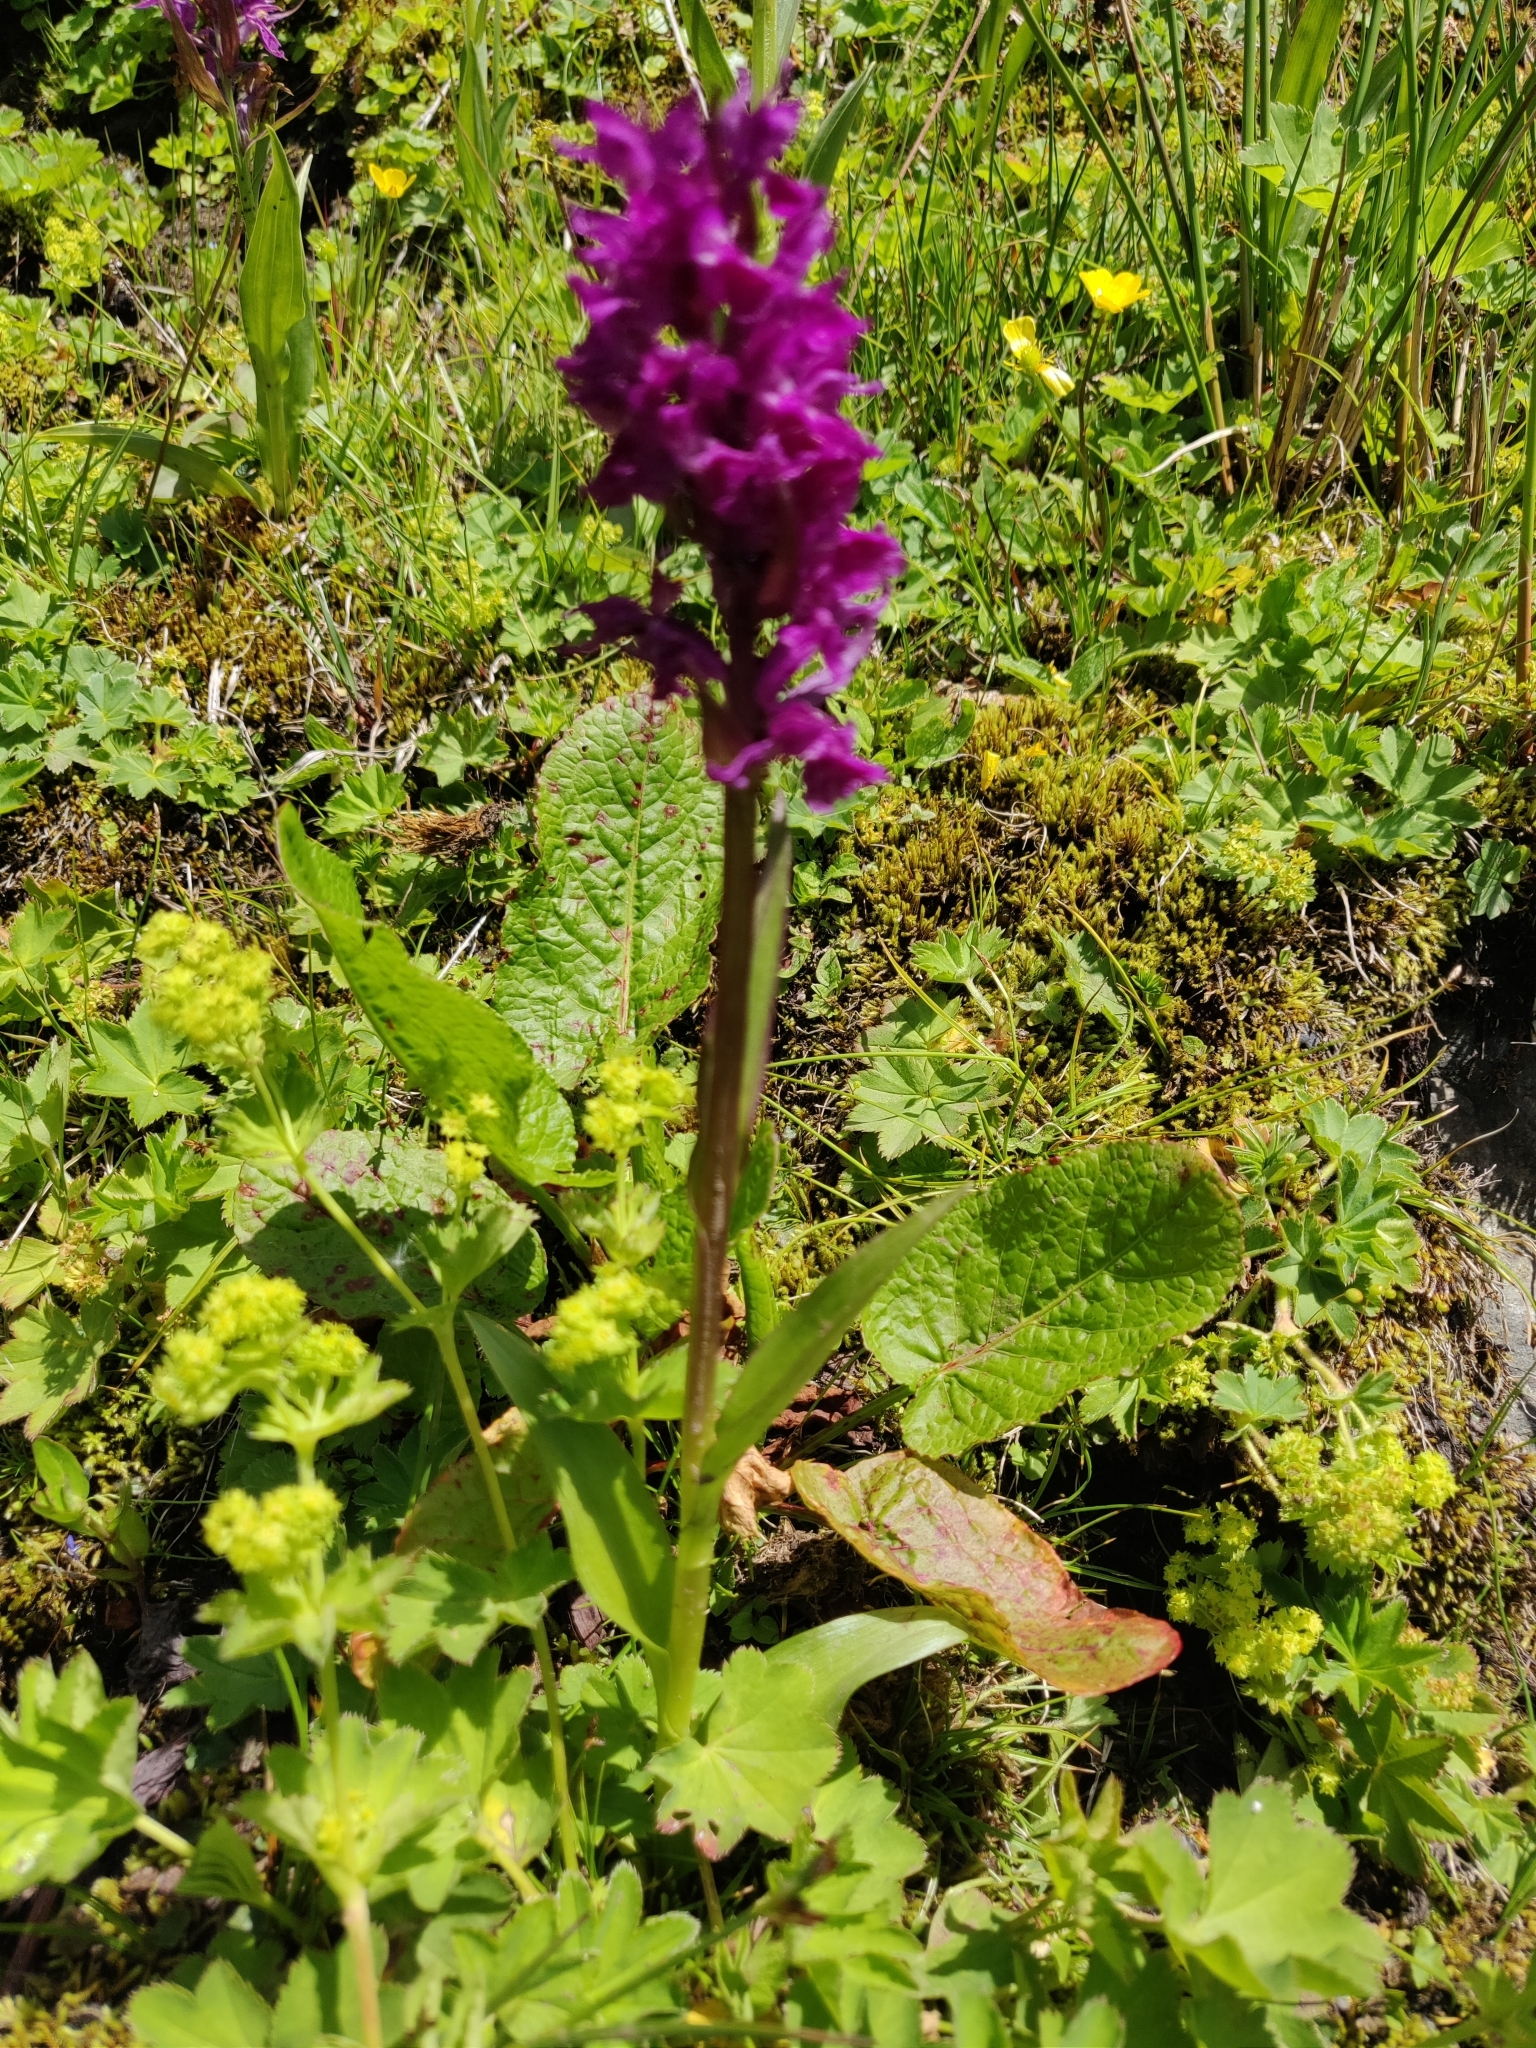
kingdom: Plantae
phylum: Tracheophyta
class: Liliopsida
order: Asparagales
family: Orchidaceae
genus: Dactylorhiza
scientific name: Dactylorhiza euxina
